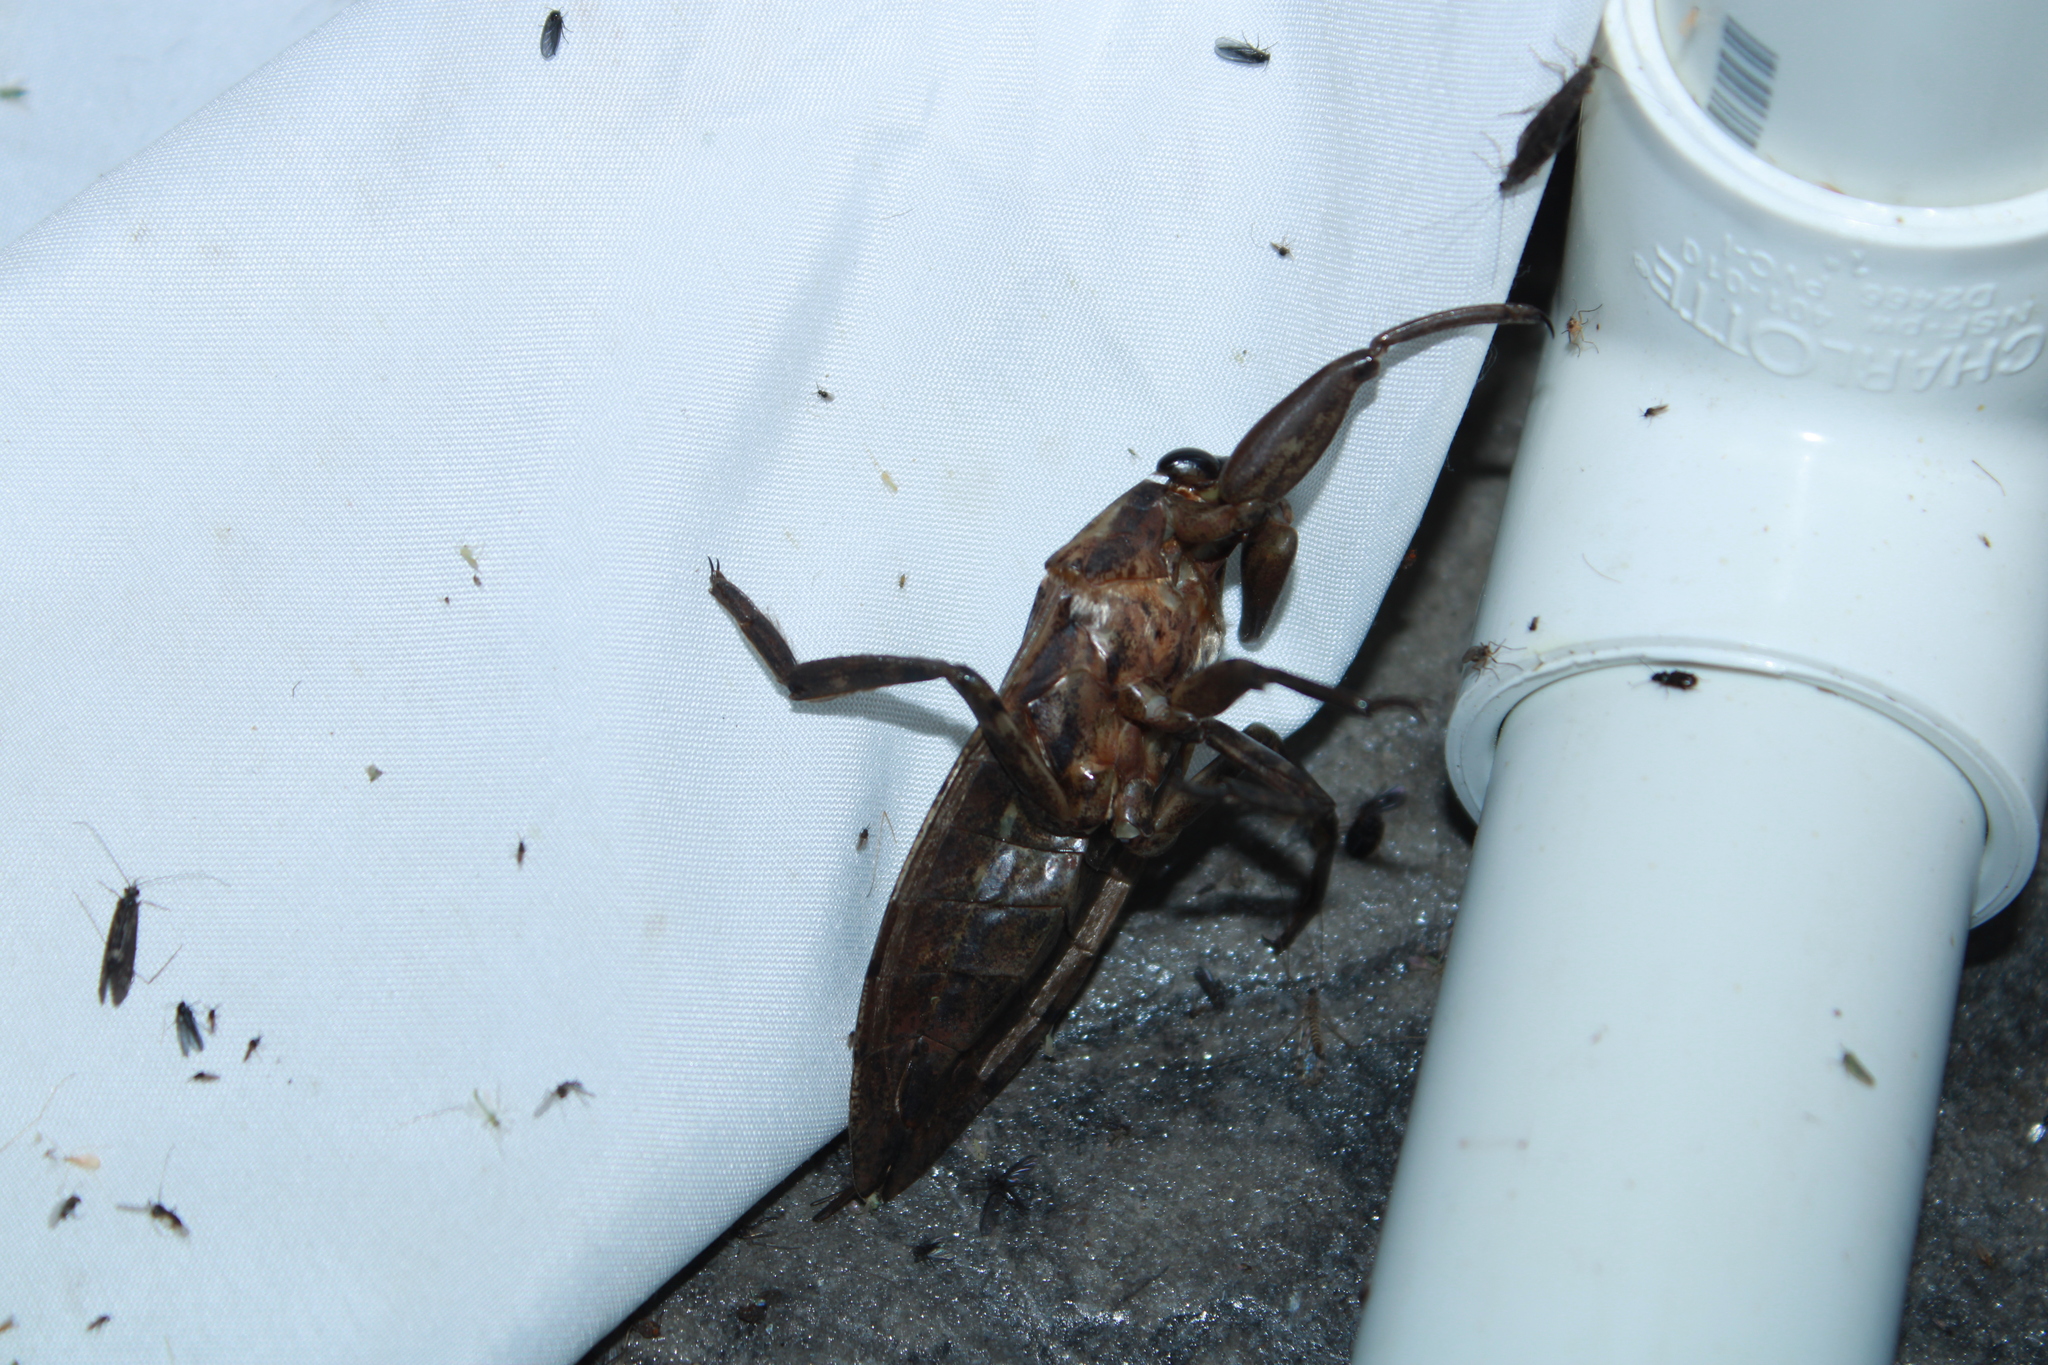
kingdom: Animalia
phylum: Arthropoda
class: Insecta
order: Hemiptera
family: Belostomatidae
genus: Lethocerus
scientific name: Lethocerus americanus
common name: Giant water bug
